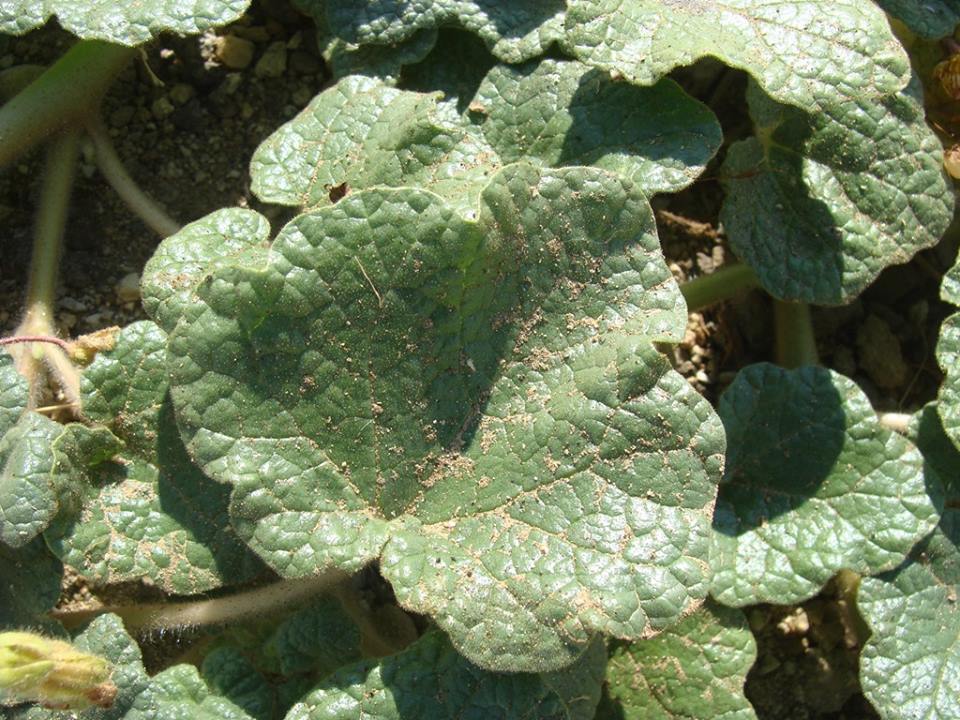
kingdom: Plantae
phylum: Tracheophyta
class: Magnoliopsida
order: Lamiales
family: Martyniaceae
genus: Proboscidea
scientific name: Proboscidea althaeifolia
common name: Desert unicorn-plant
